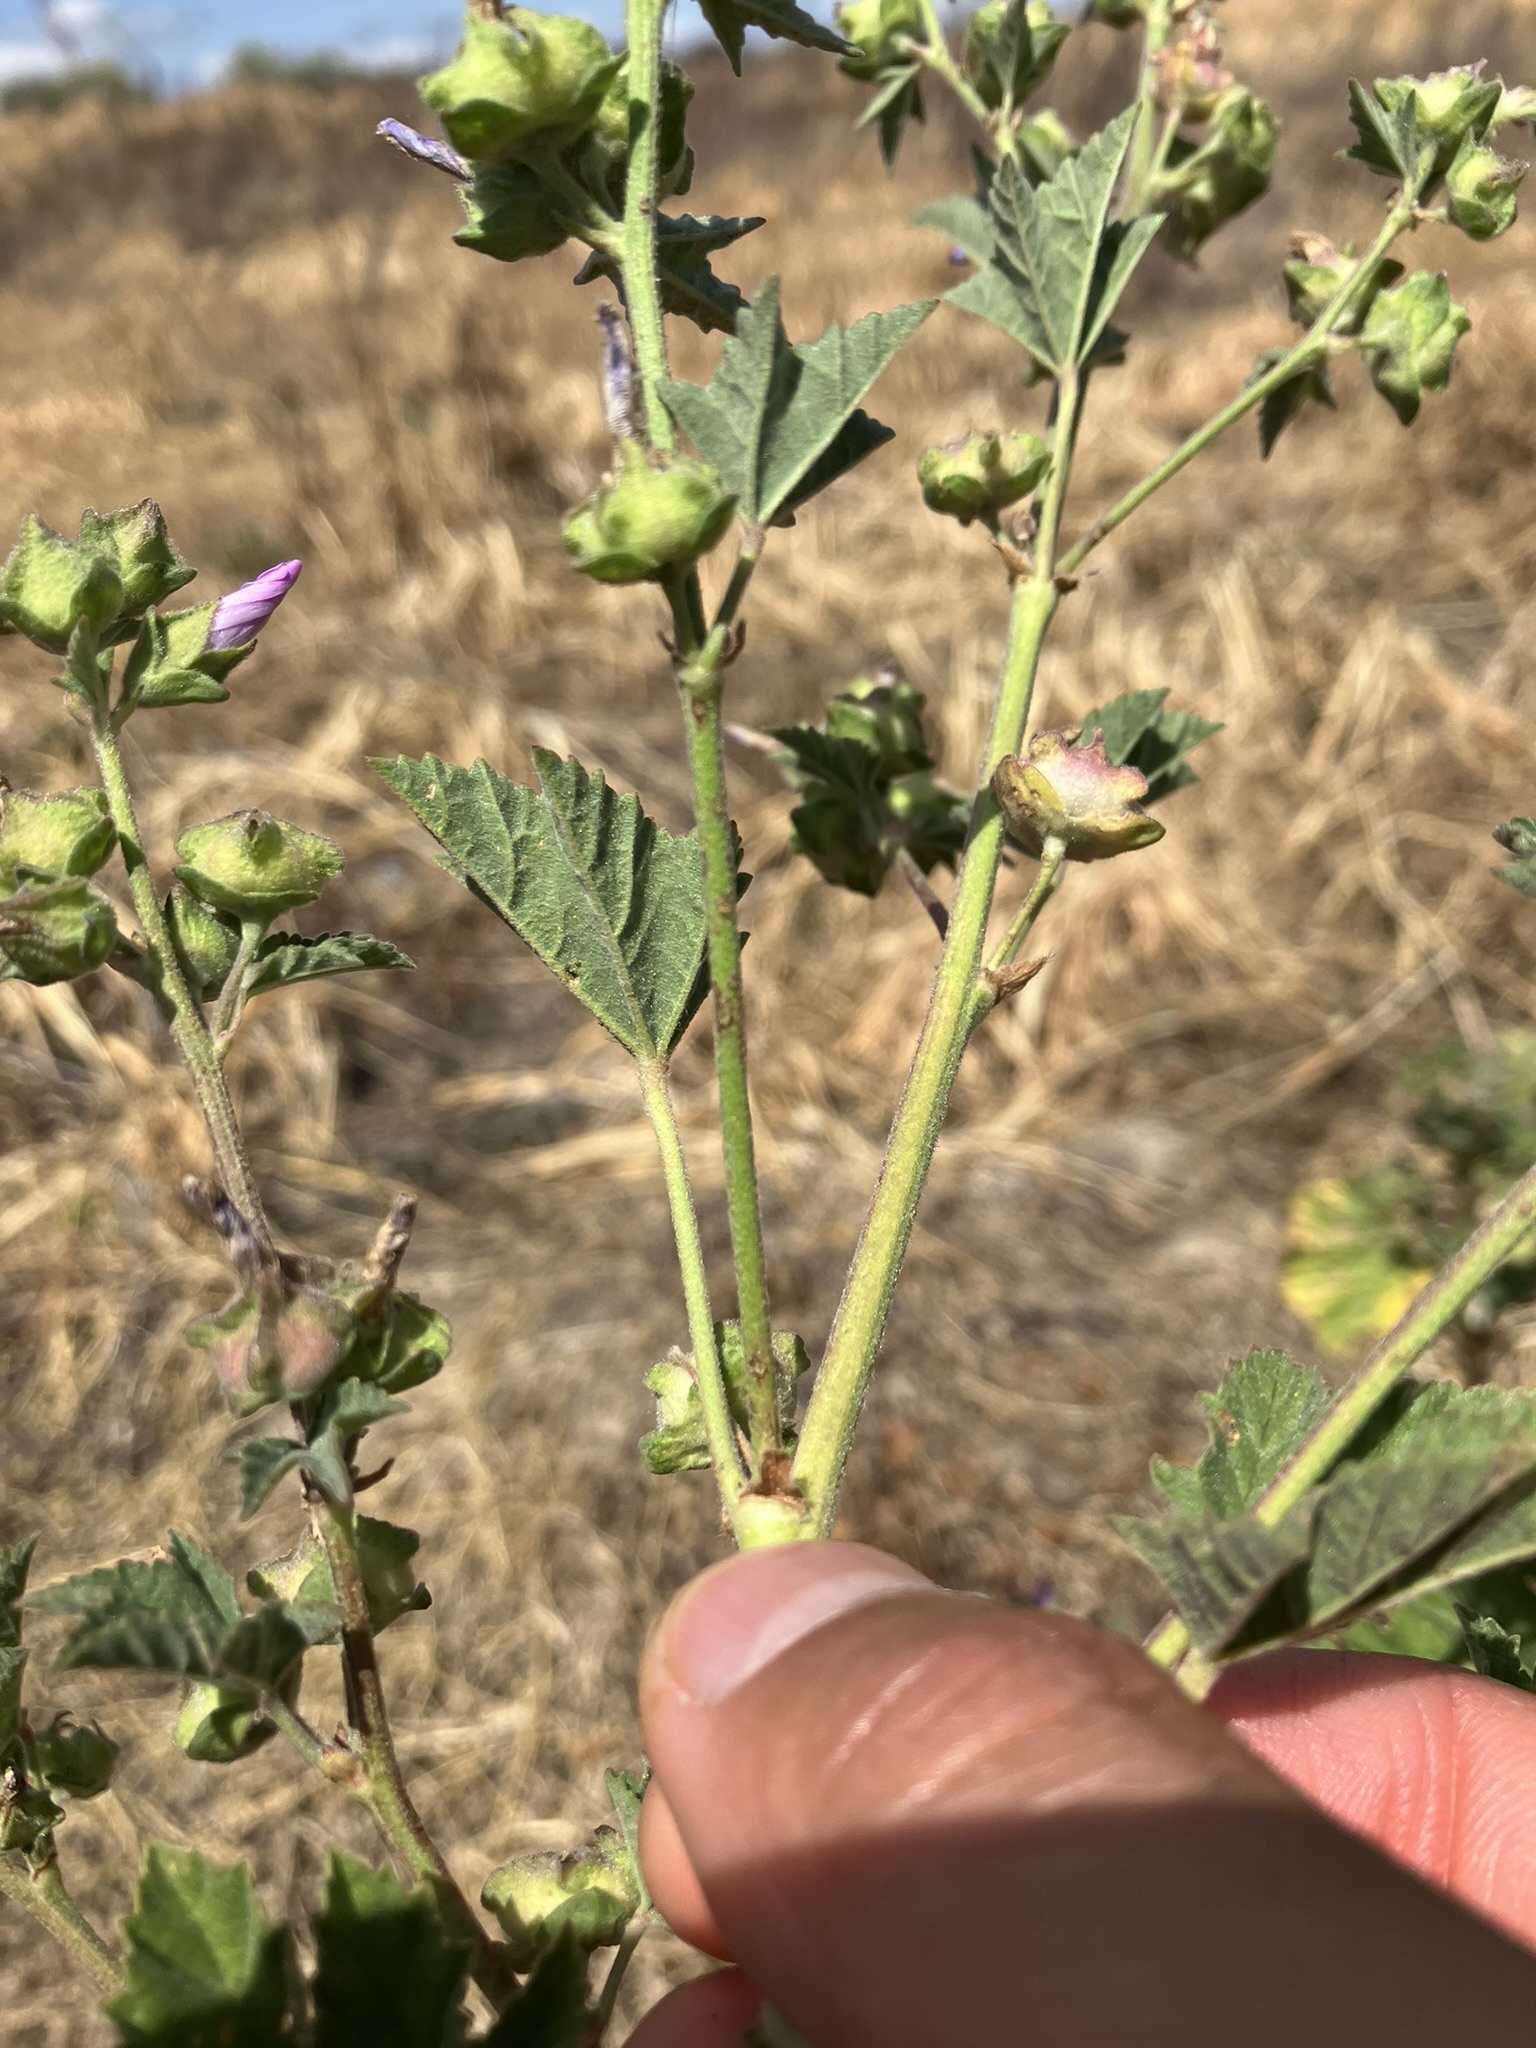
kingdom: Plantae
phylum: Tracheophyta
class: Magnoliopsida
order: Malvales
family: Malvaceae
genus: Malva
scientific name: Malva multiflora
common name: Cheeseweed
